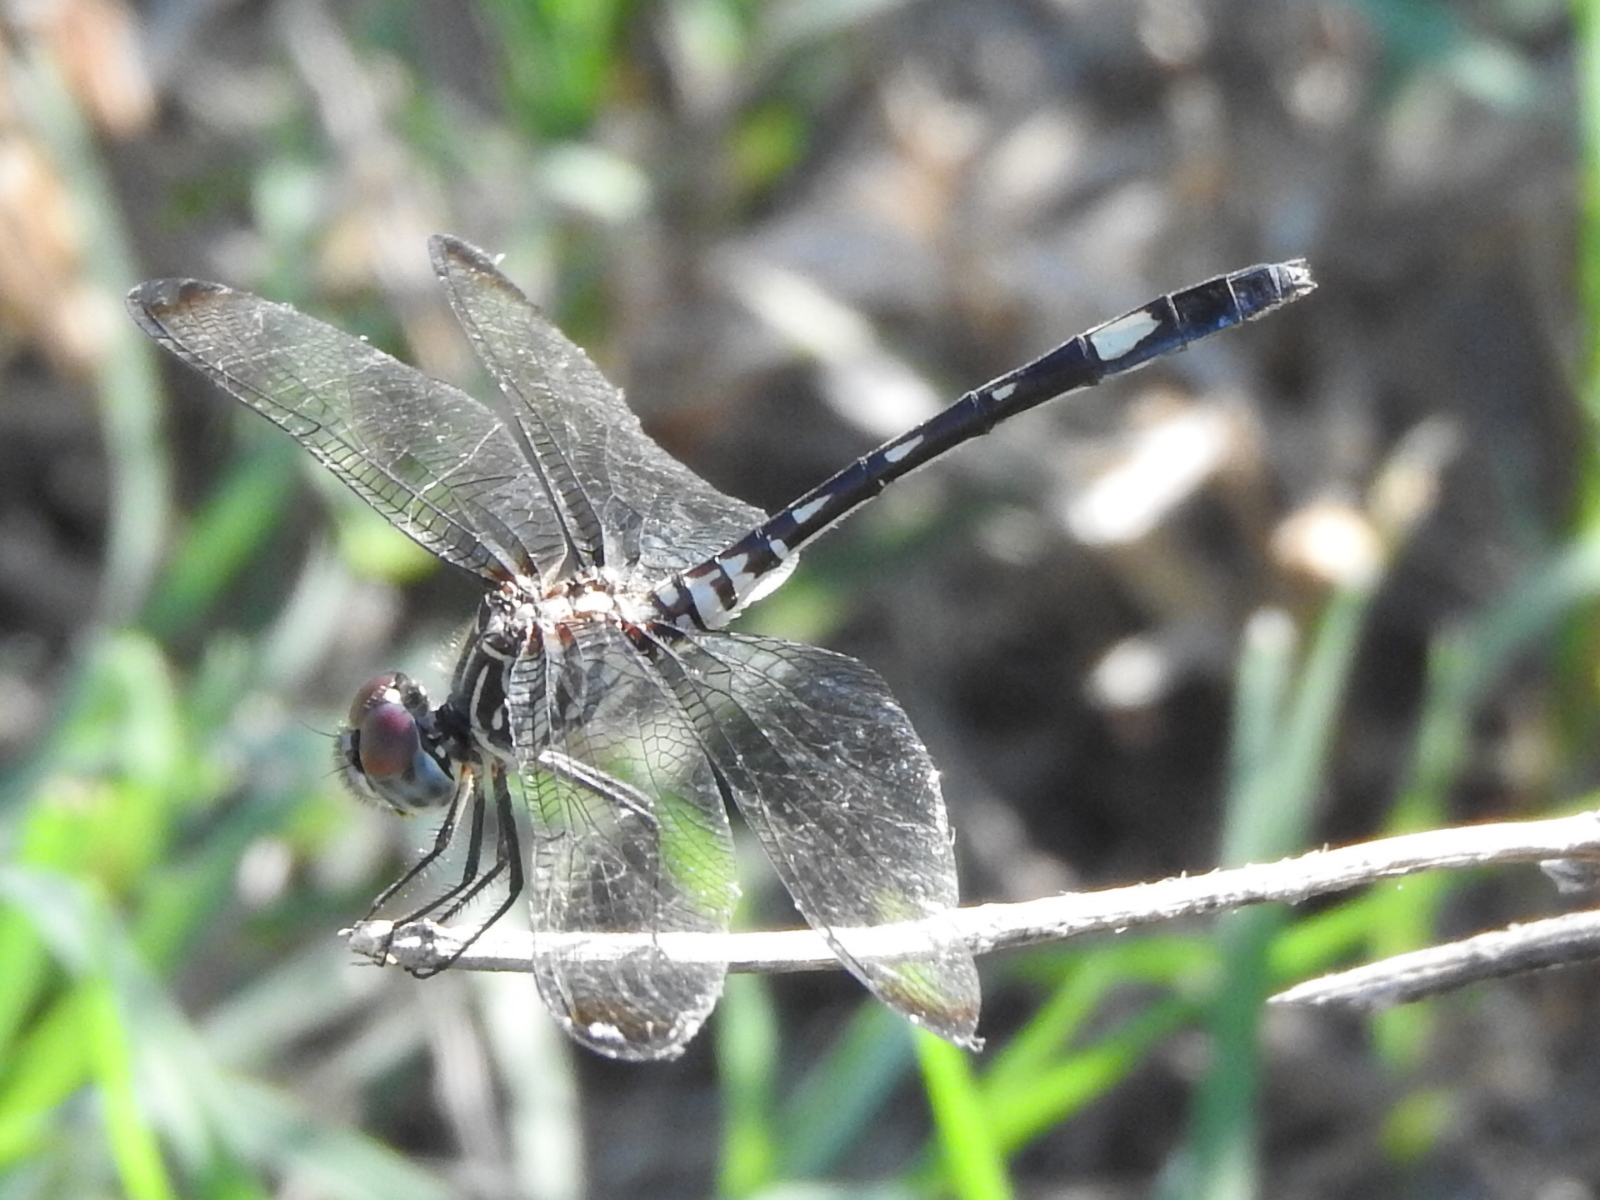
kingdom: Animalia
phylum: Arthropoda
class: Insecta
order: Odonata
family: Libellulidae
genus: Dythemis
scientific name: Dythemis velox
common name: Swift setwing
